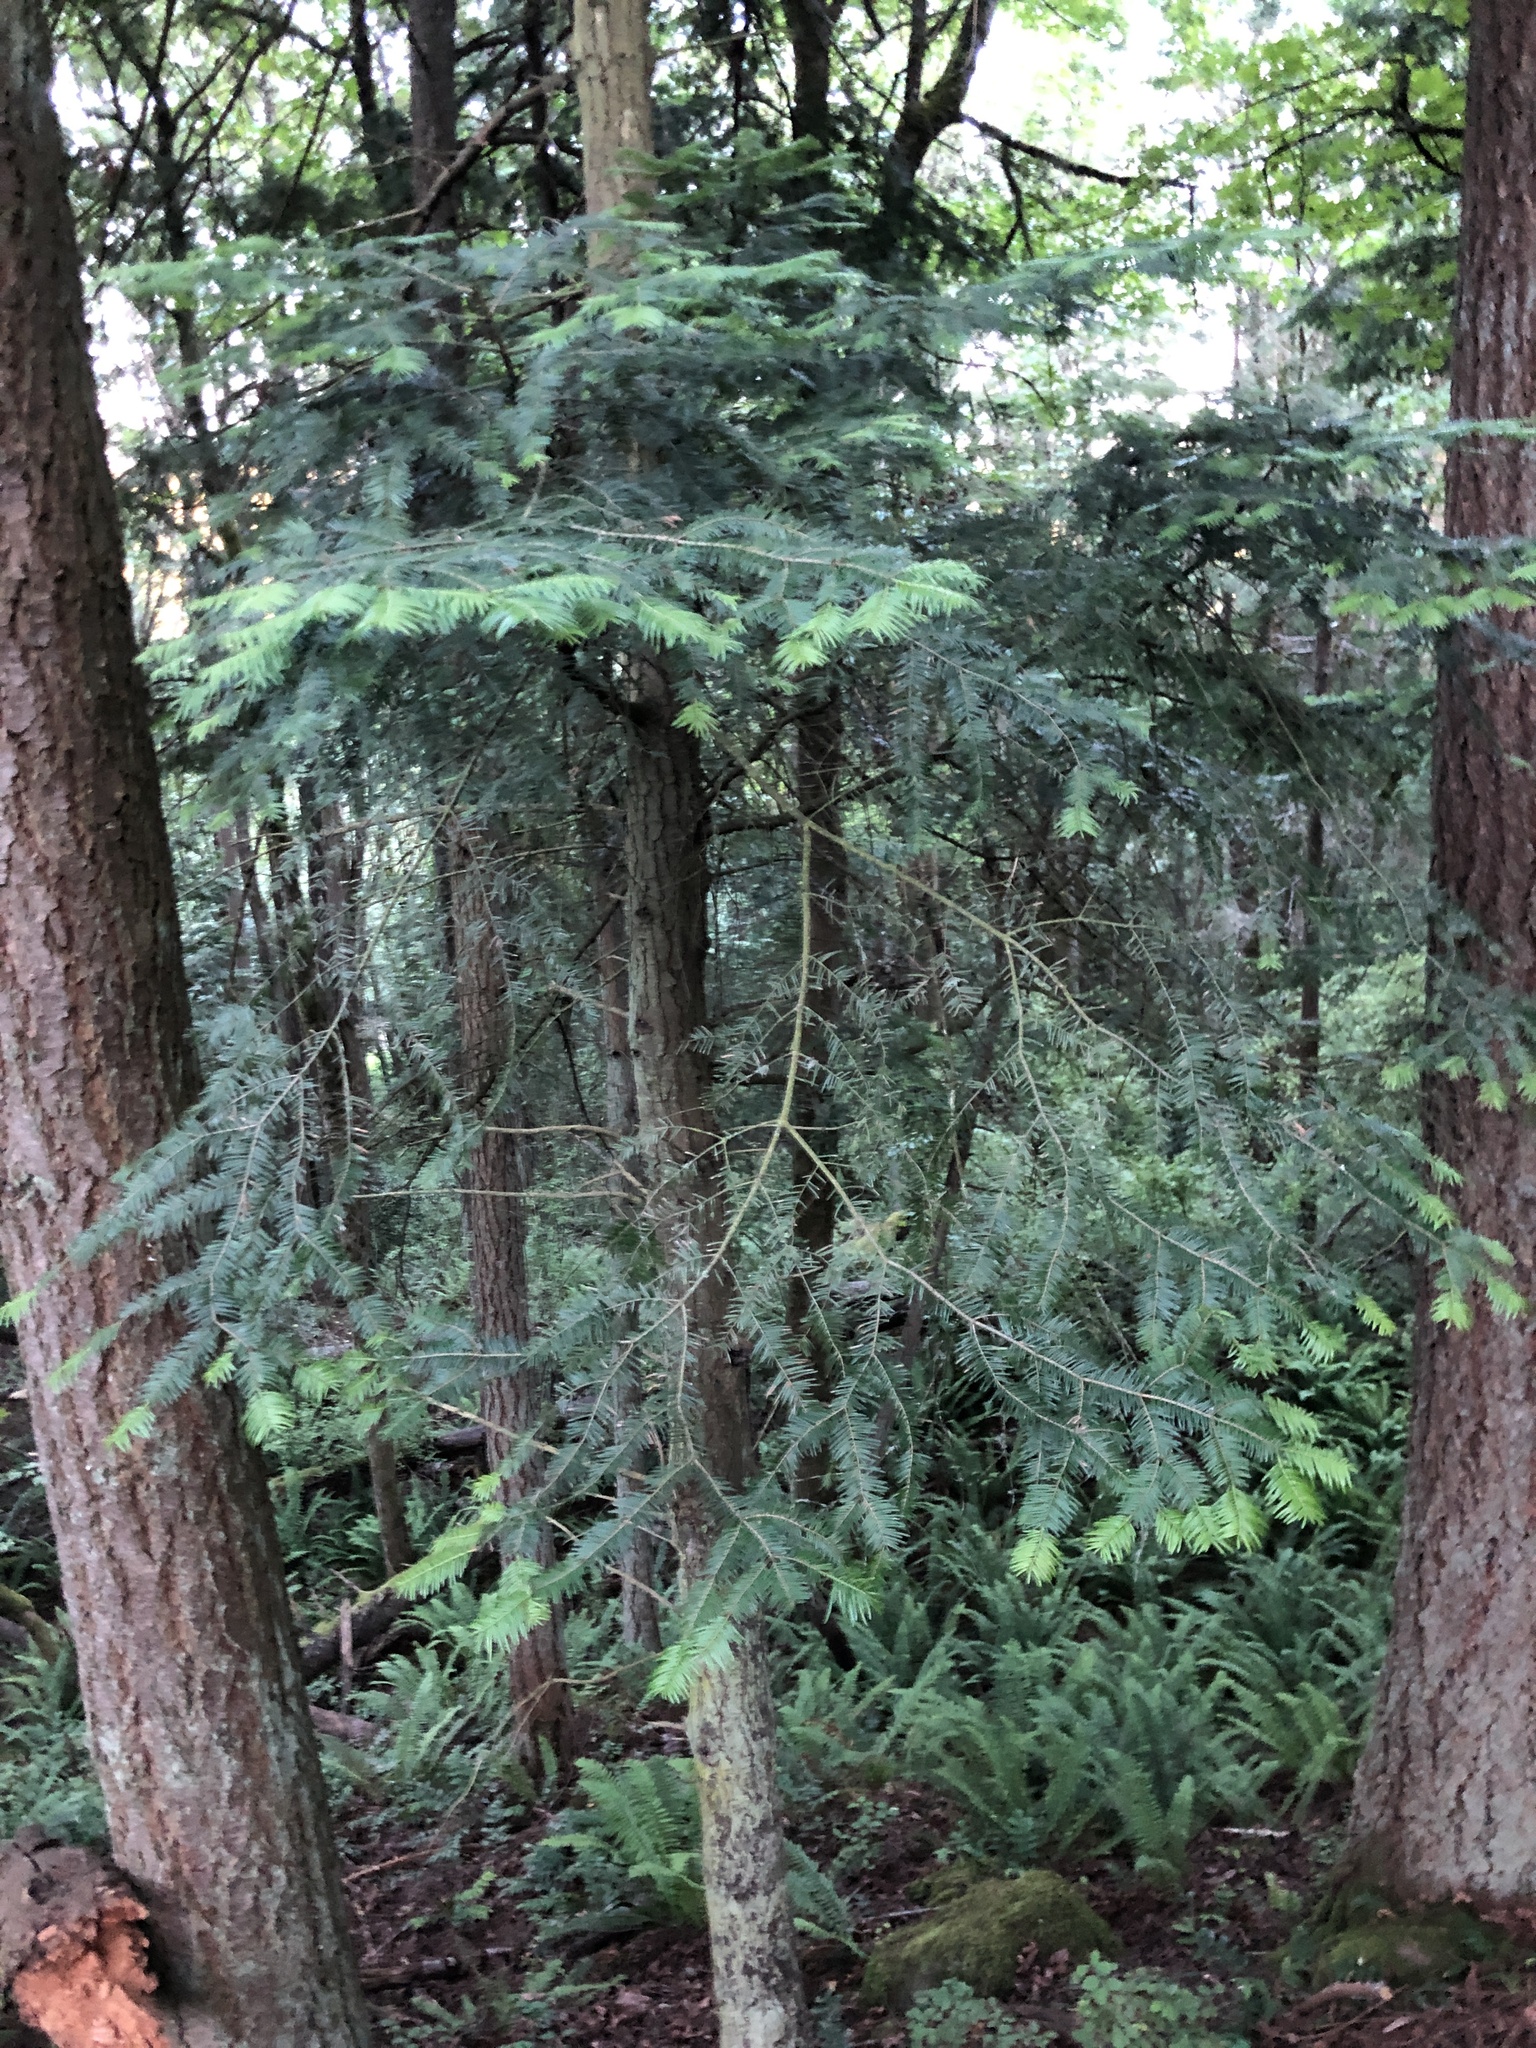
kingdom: Plantae
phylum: Tracheophyta
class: Pinopsida
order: Pinales
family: Pinaceae
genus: Abies
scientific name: Abies grandis
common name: Giant fir
